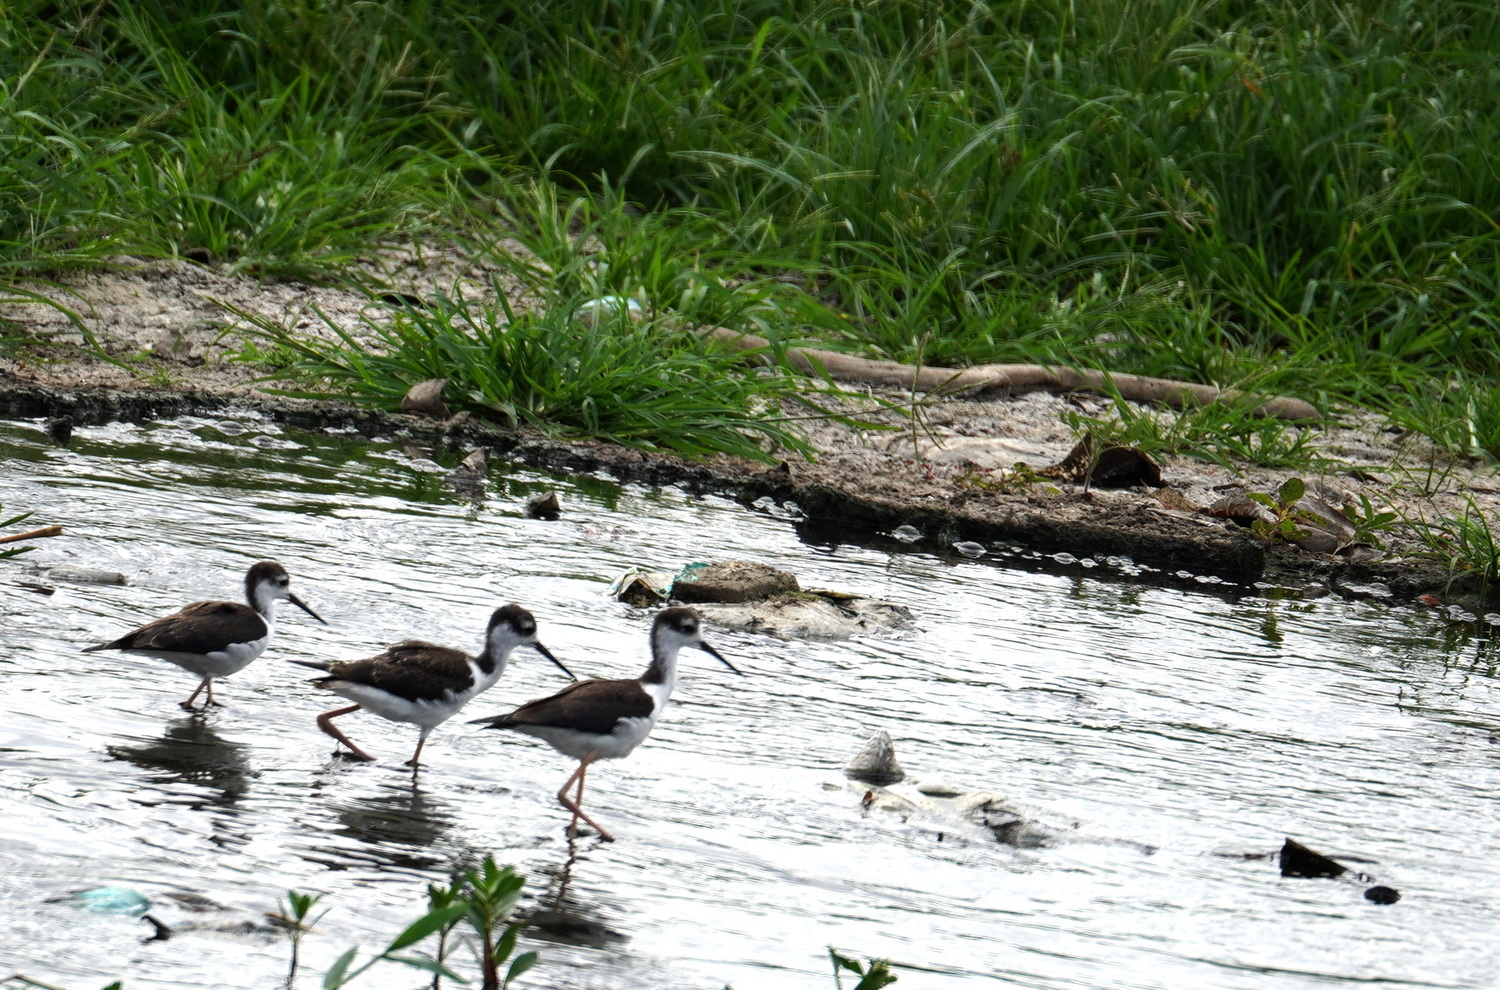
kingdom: Animalia
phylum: Chordata
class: Aves
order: Charadriiformes
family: Recurvirostridae
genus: Himantopus
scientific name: Himantopus mexicanus
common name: Black-necked stilt
